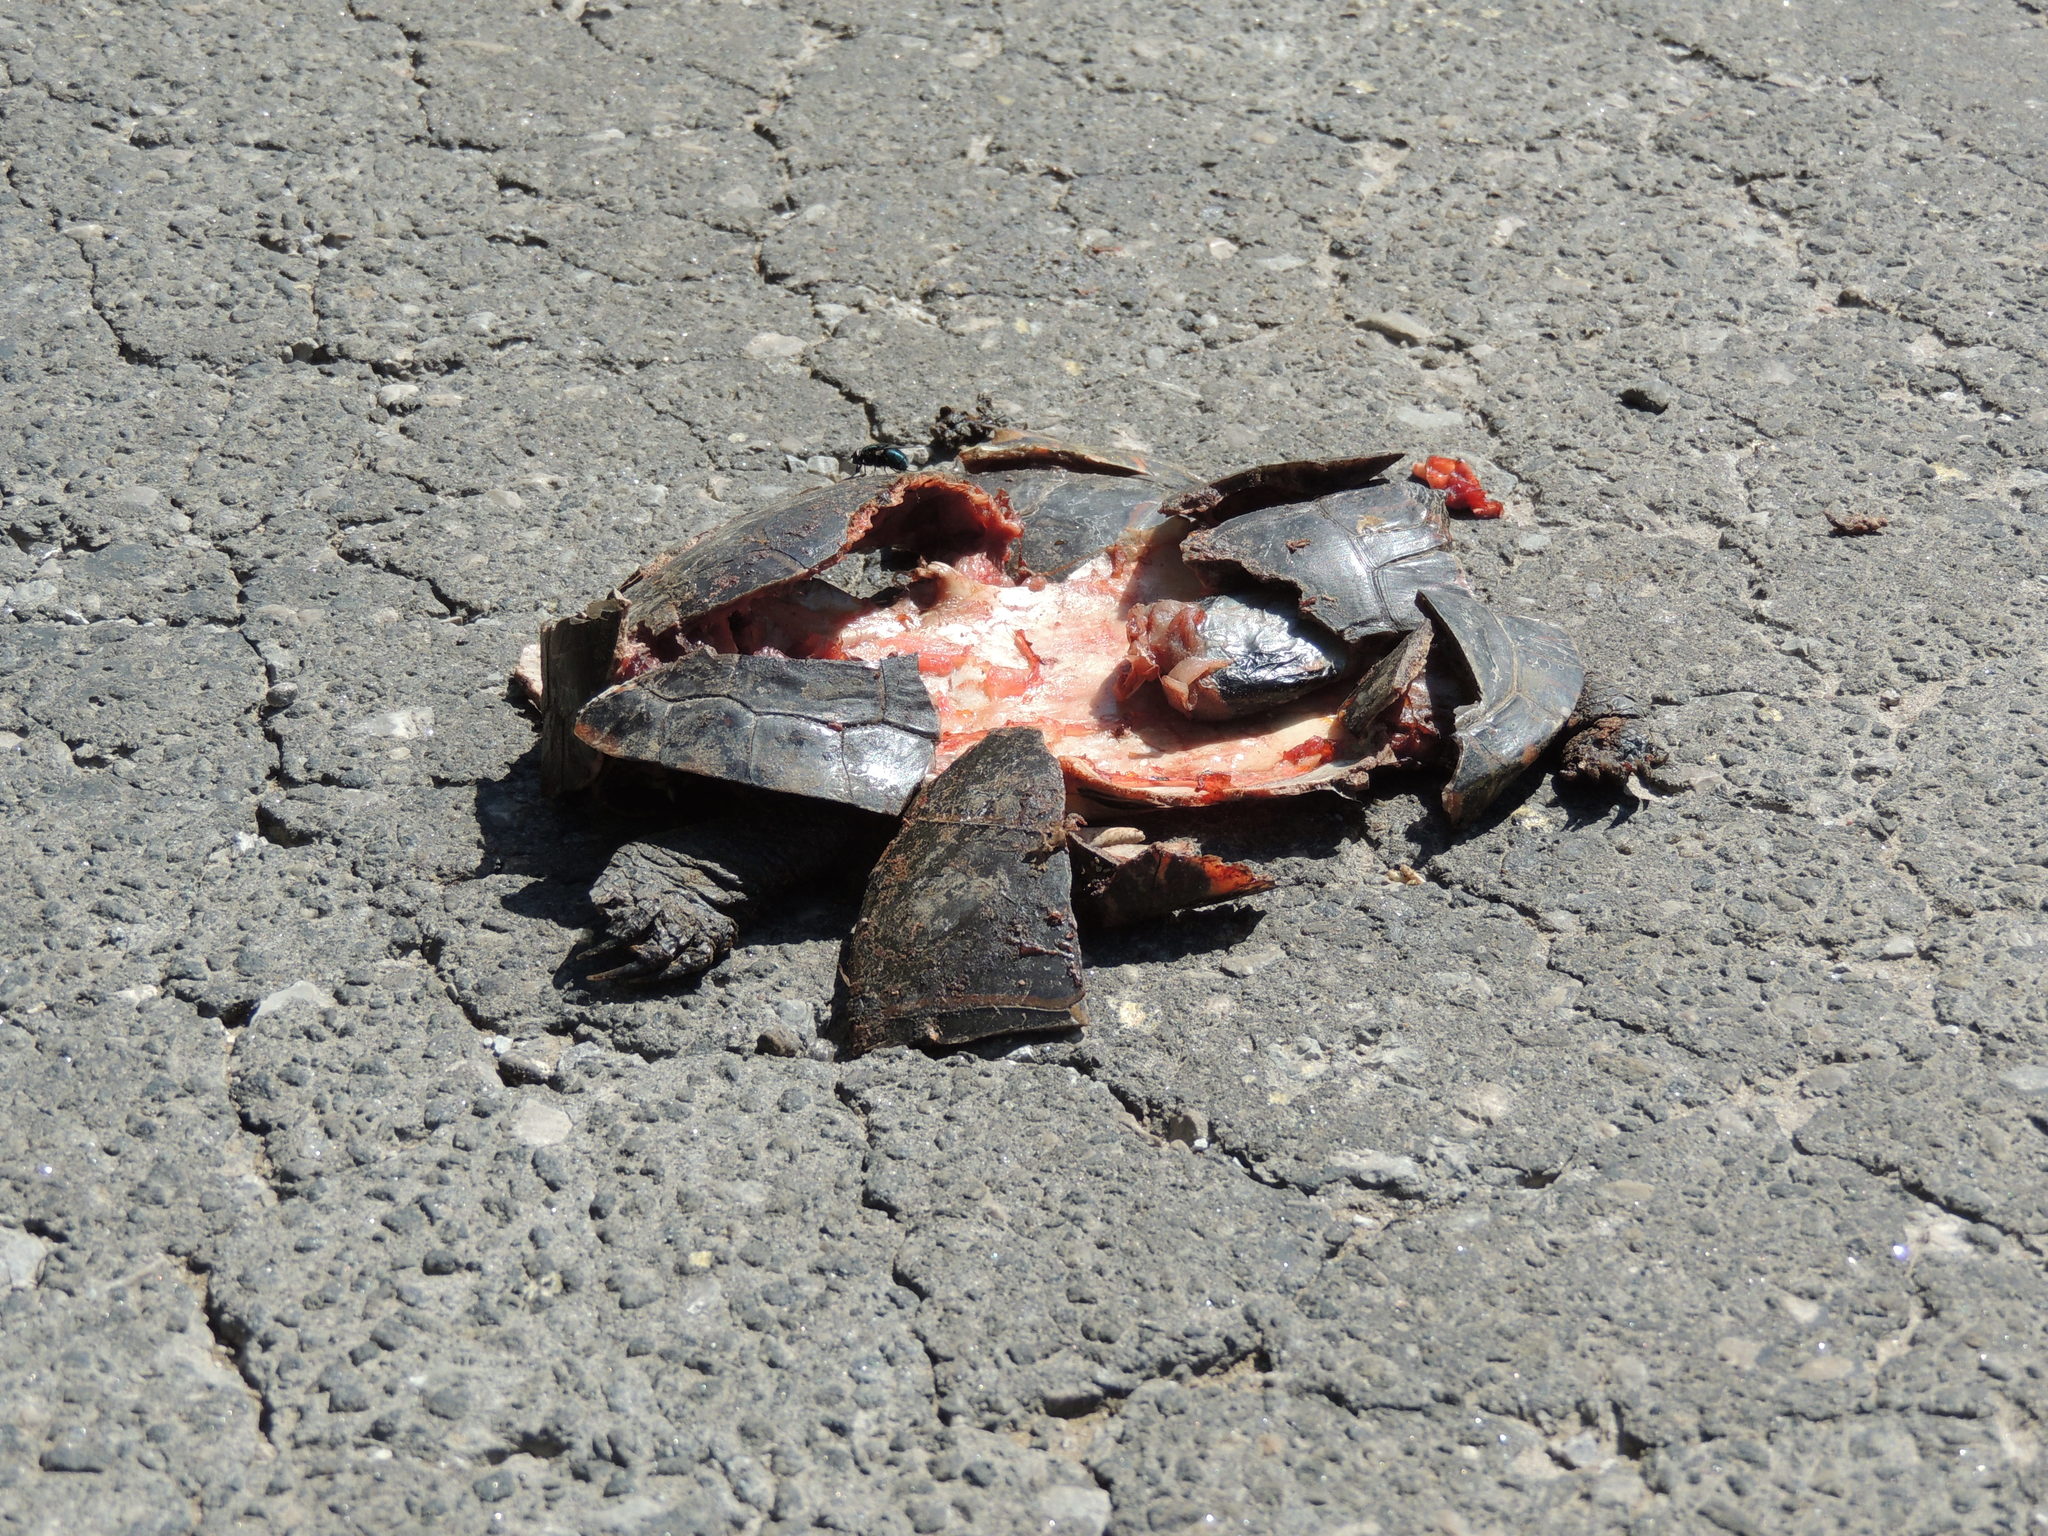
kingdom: Animalia
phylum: Chordata
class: Testudines
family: Emydidae
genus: Chrysemys
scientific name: Chrysemys picta
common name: Painted turtle
